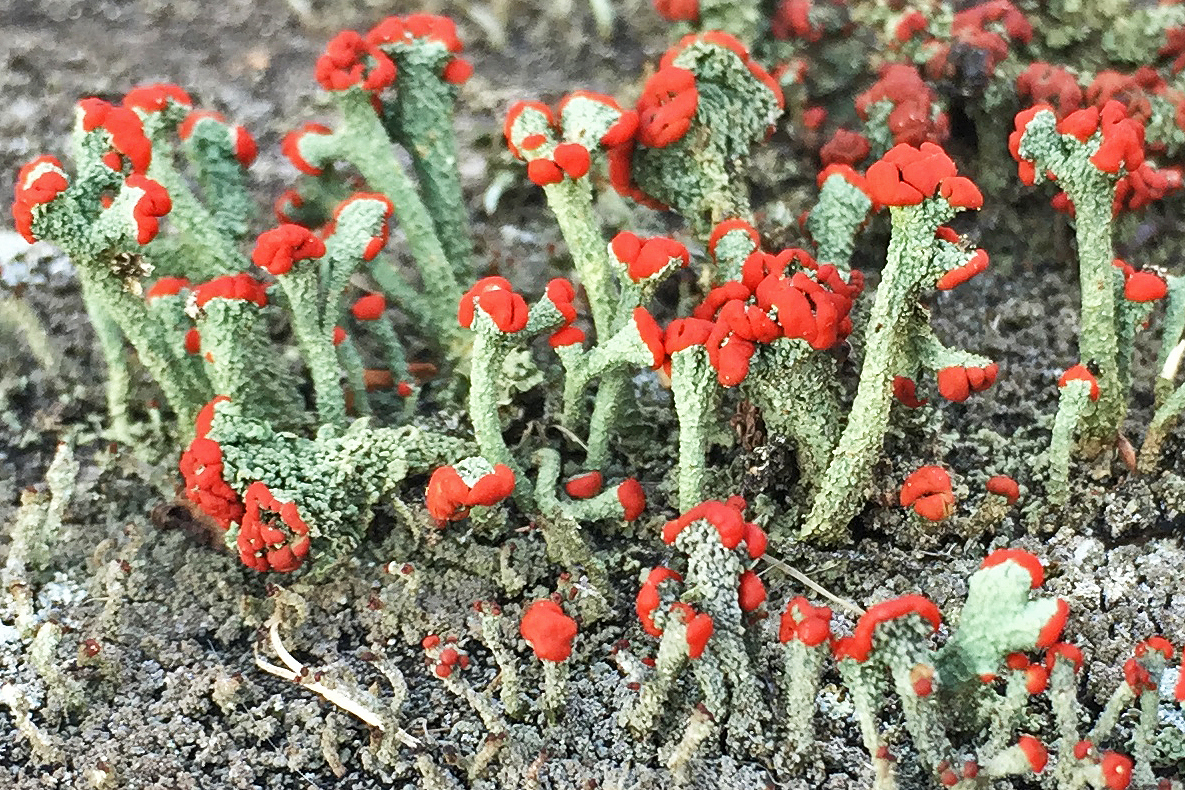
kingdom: Fungi
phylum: Ascomycota
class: Lecanoromycetes
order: Lecanorales
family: Cladoniaceae
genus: Cladonia
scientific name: Cladonia cristatella
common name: British soldier lichen
